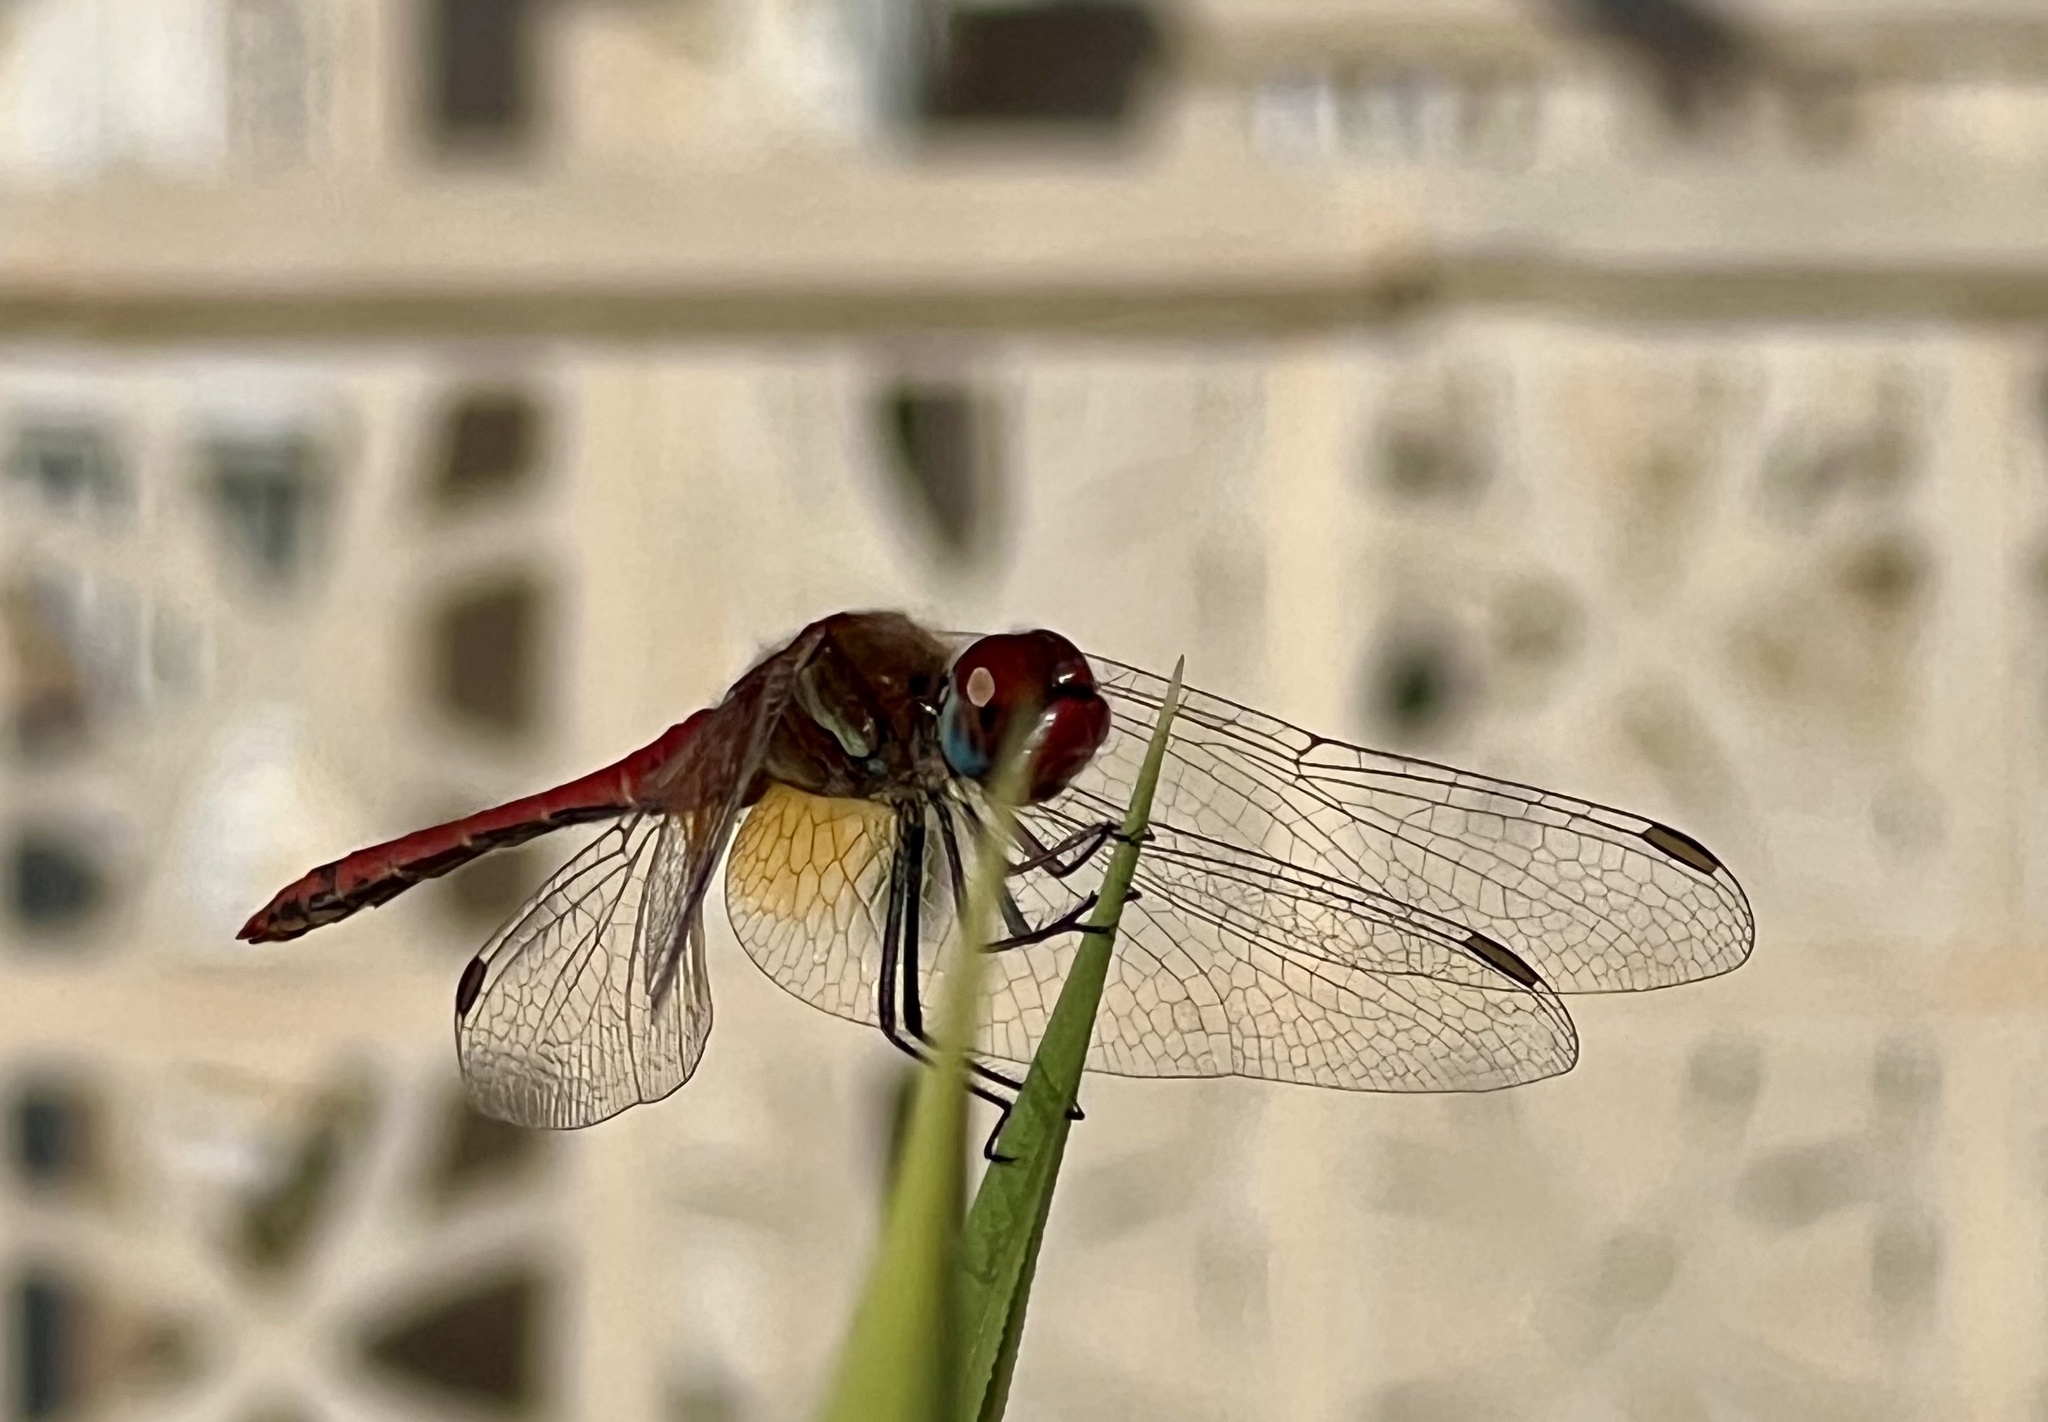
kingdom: Animalia
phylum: Arthropoda
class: Insecta
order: Odonata
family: Libellulidae
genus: Sympetrum
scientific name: Sympetrum fonscolombii
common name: Red-veined darter
